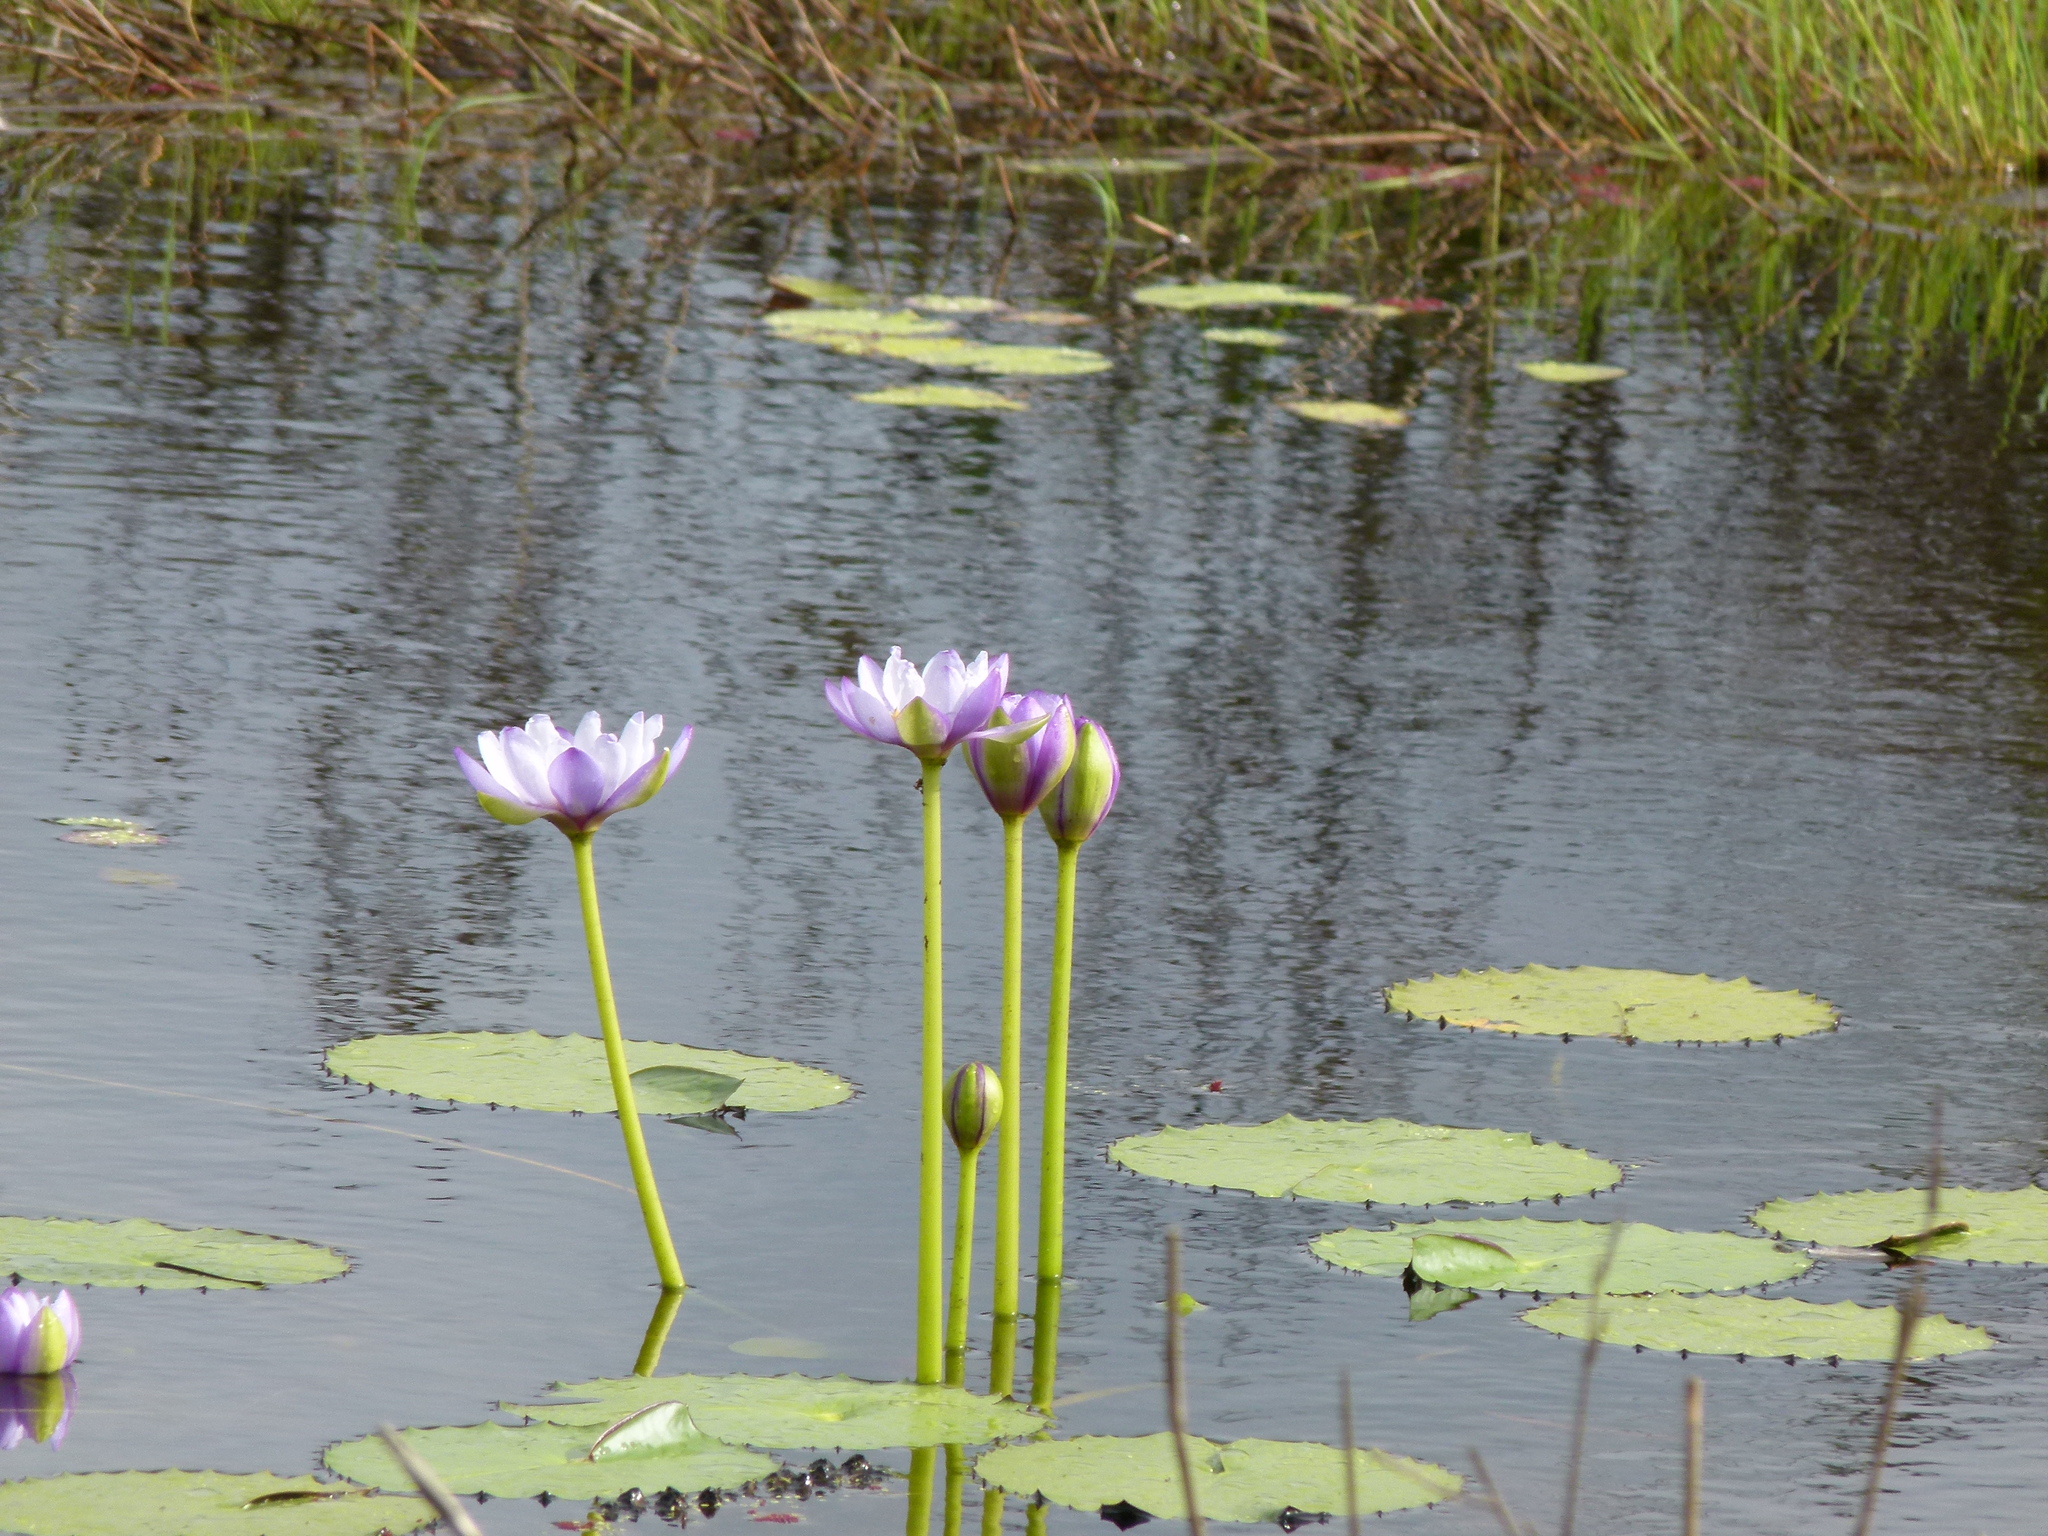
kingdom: Plantae
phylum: Tracheophyta
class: Magnoliopsida
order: Nymphaeales
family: Nymphaeaceae
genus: Nymphaea
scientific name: Nymphaea gigantea
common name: Giant water-lily
